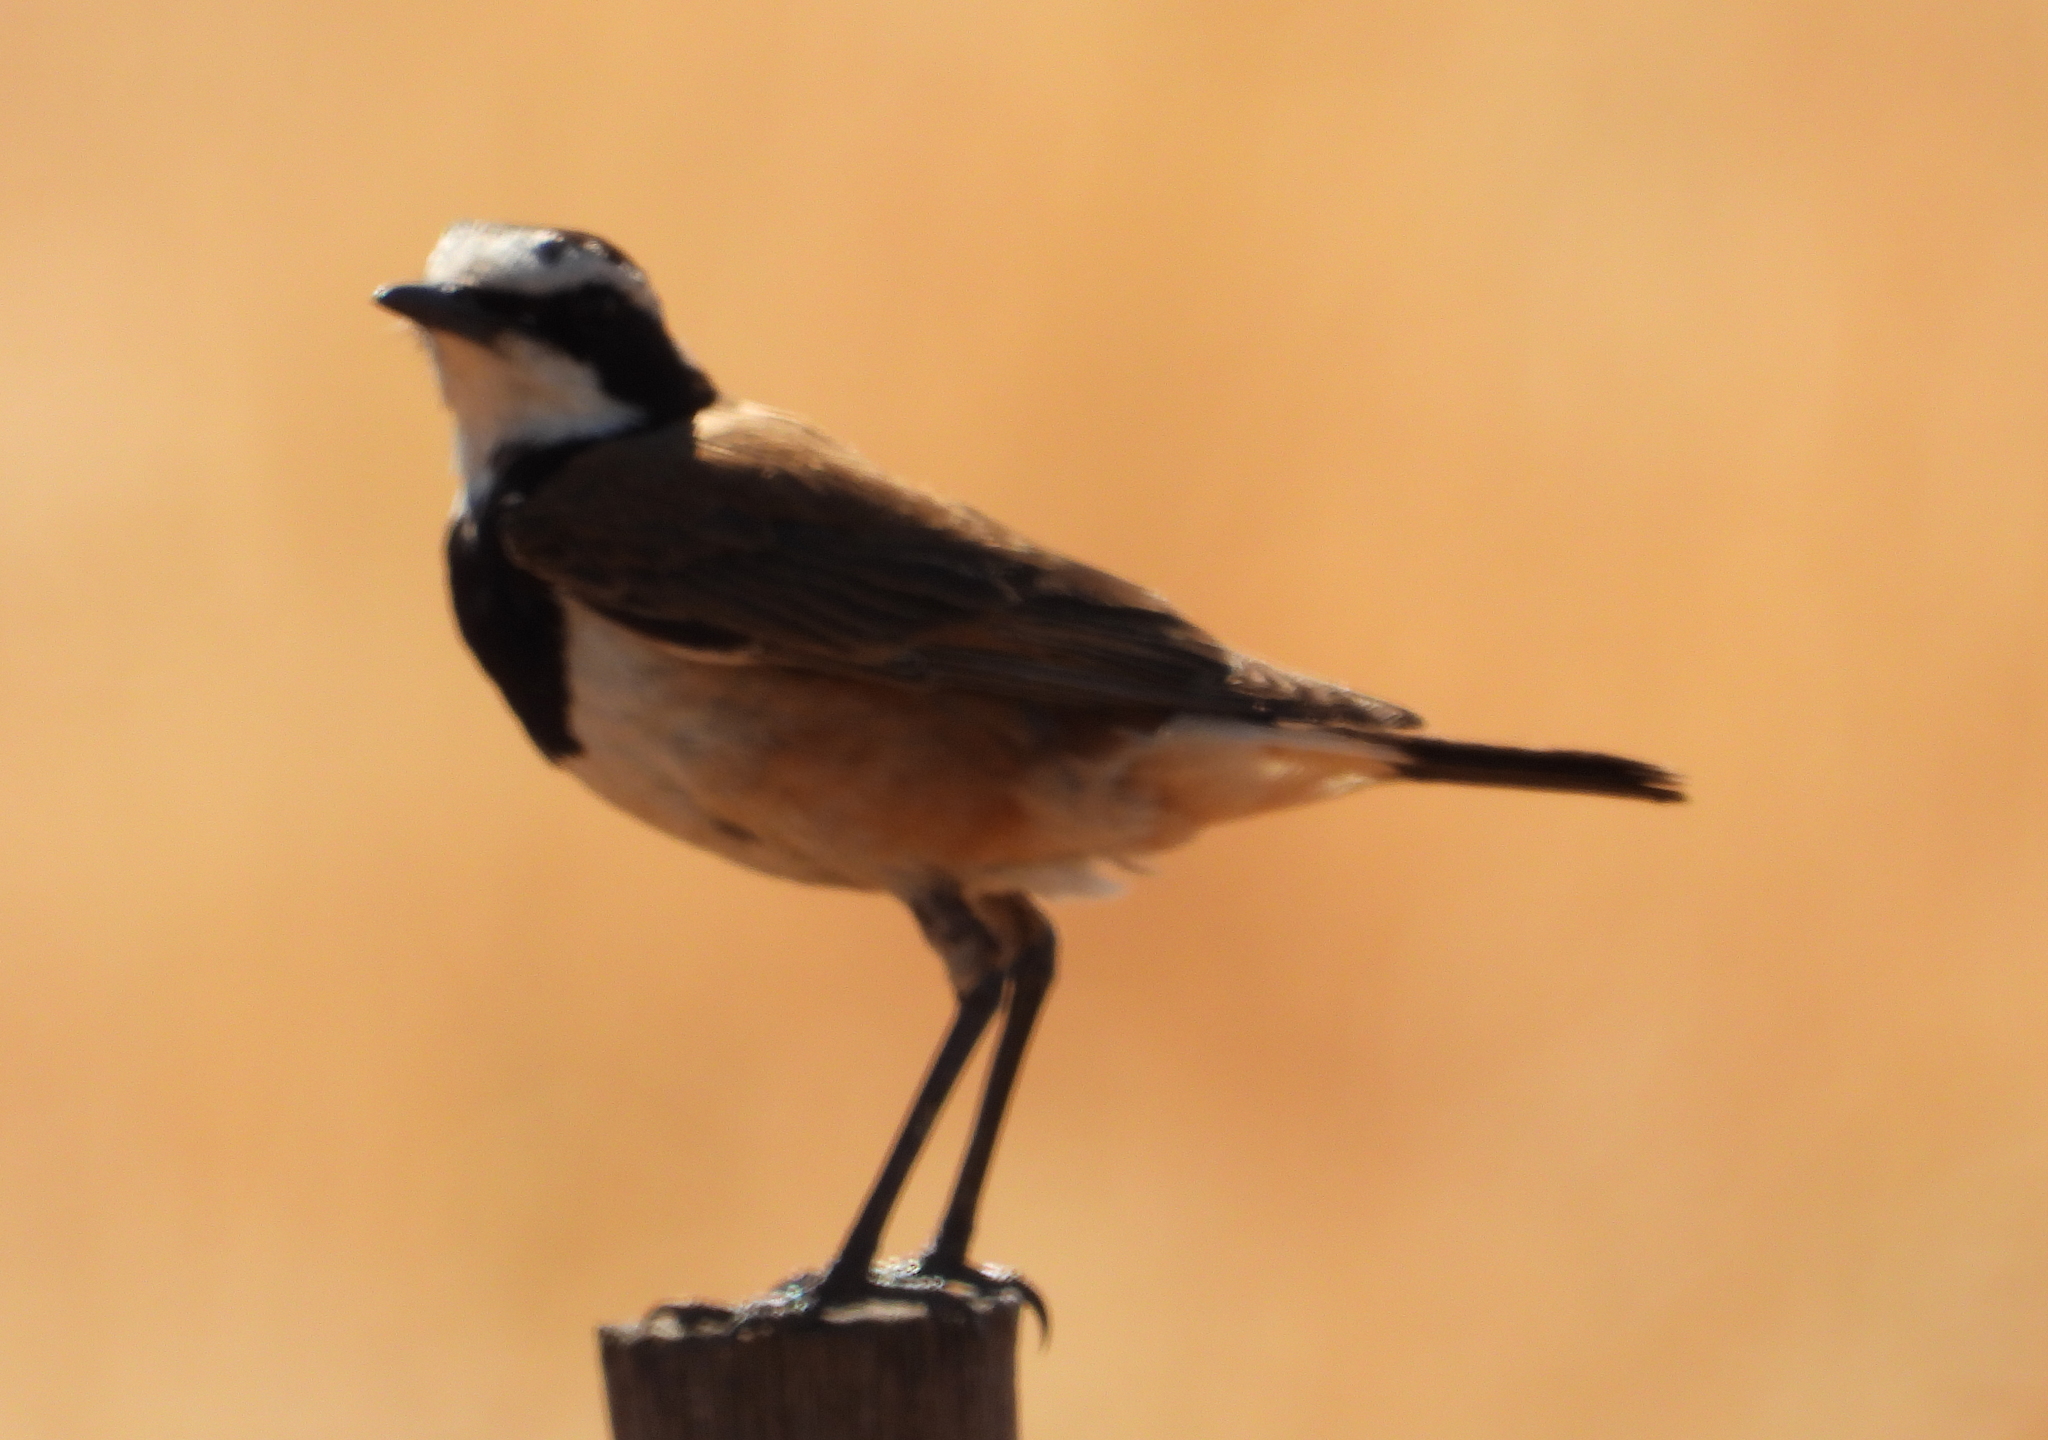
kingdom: Animalia
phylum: Chordata
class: Aves
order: Passeriformes
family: Muscicapidae
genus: Oenanthe
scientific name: Oenanthe pileata
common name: Capped wheatear
